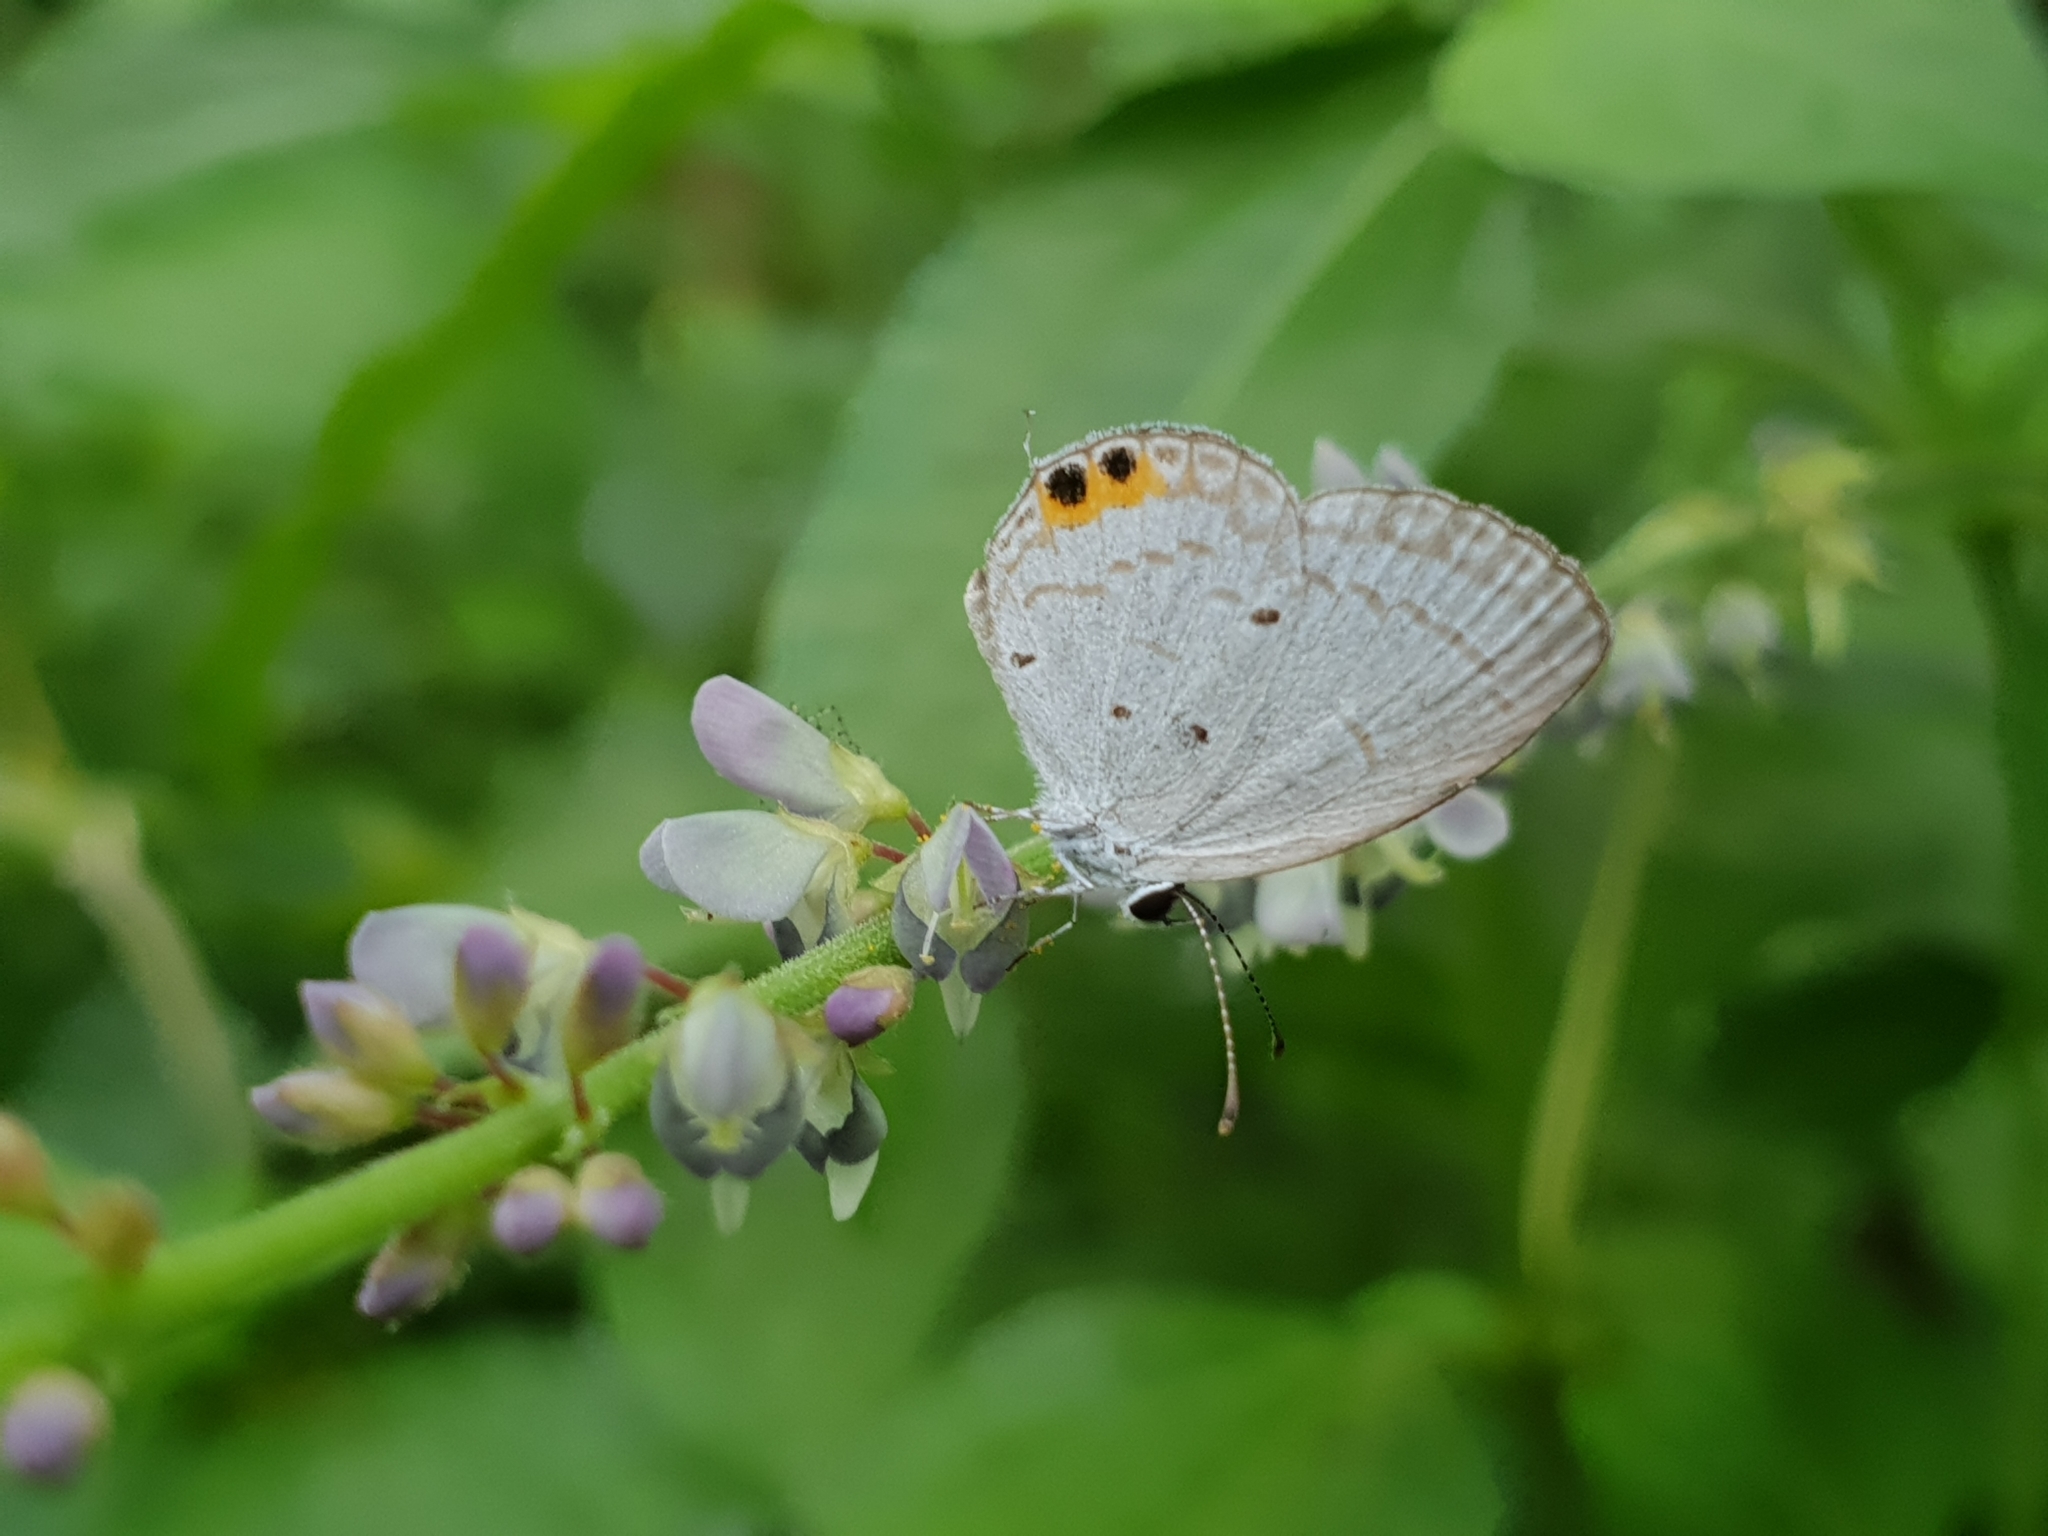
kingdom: Animalia
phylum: Arthropoda
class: Insecta
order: Lepidoptera
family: Lycaenidae
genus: Everes
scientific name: Everes lacturnus
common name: Orange-tipped pea-blue
